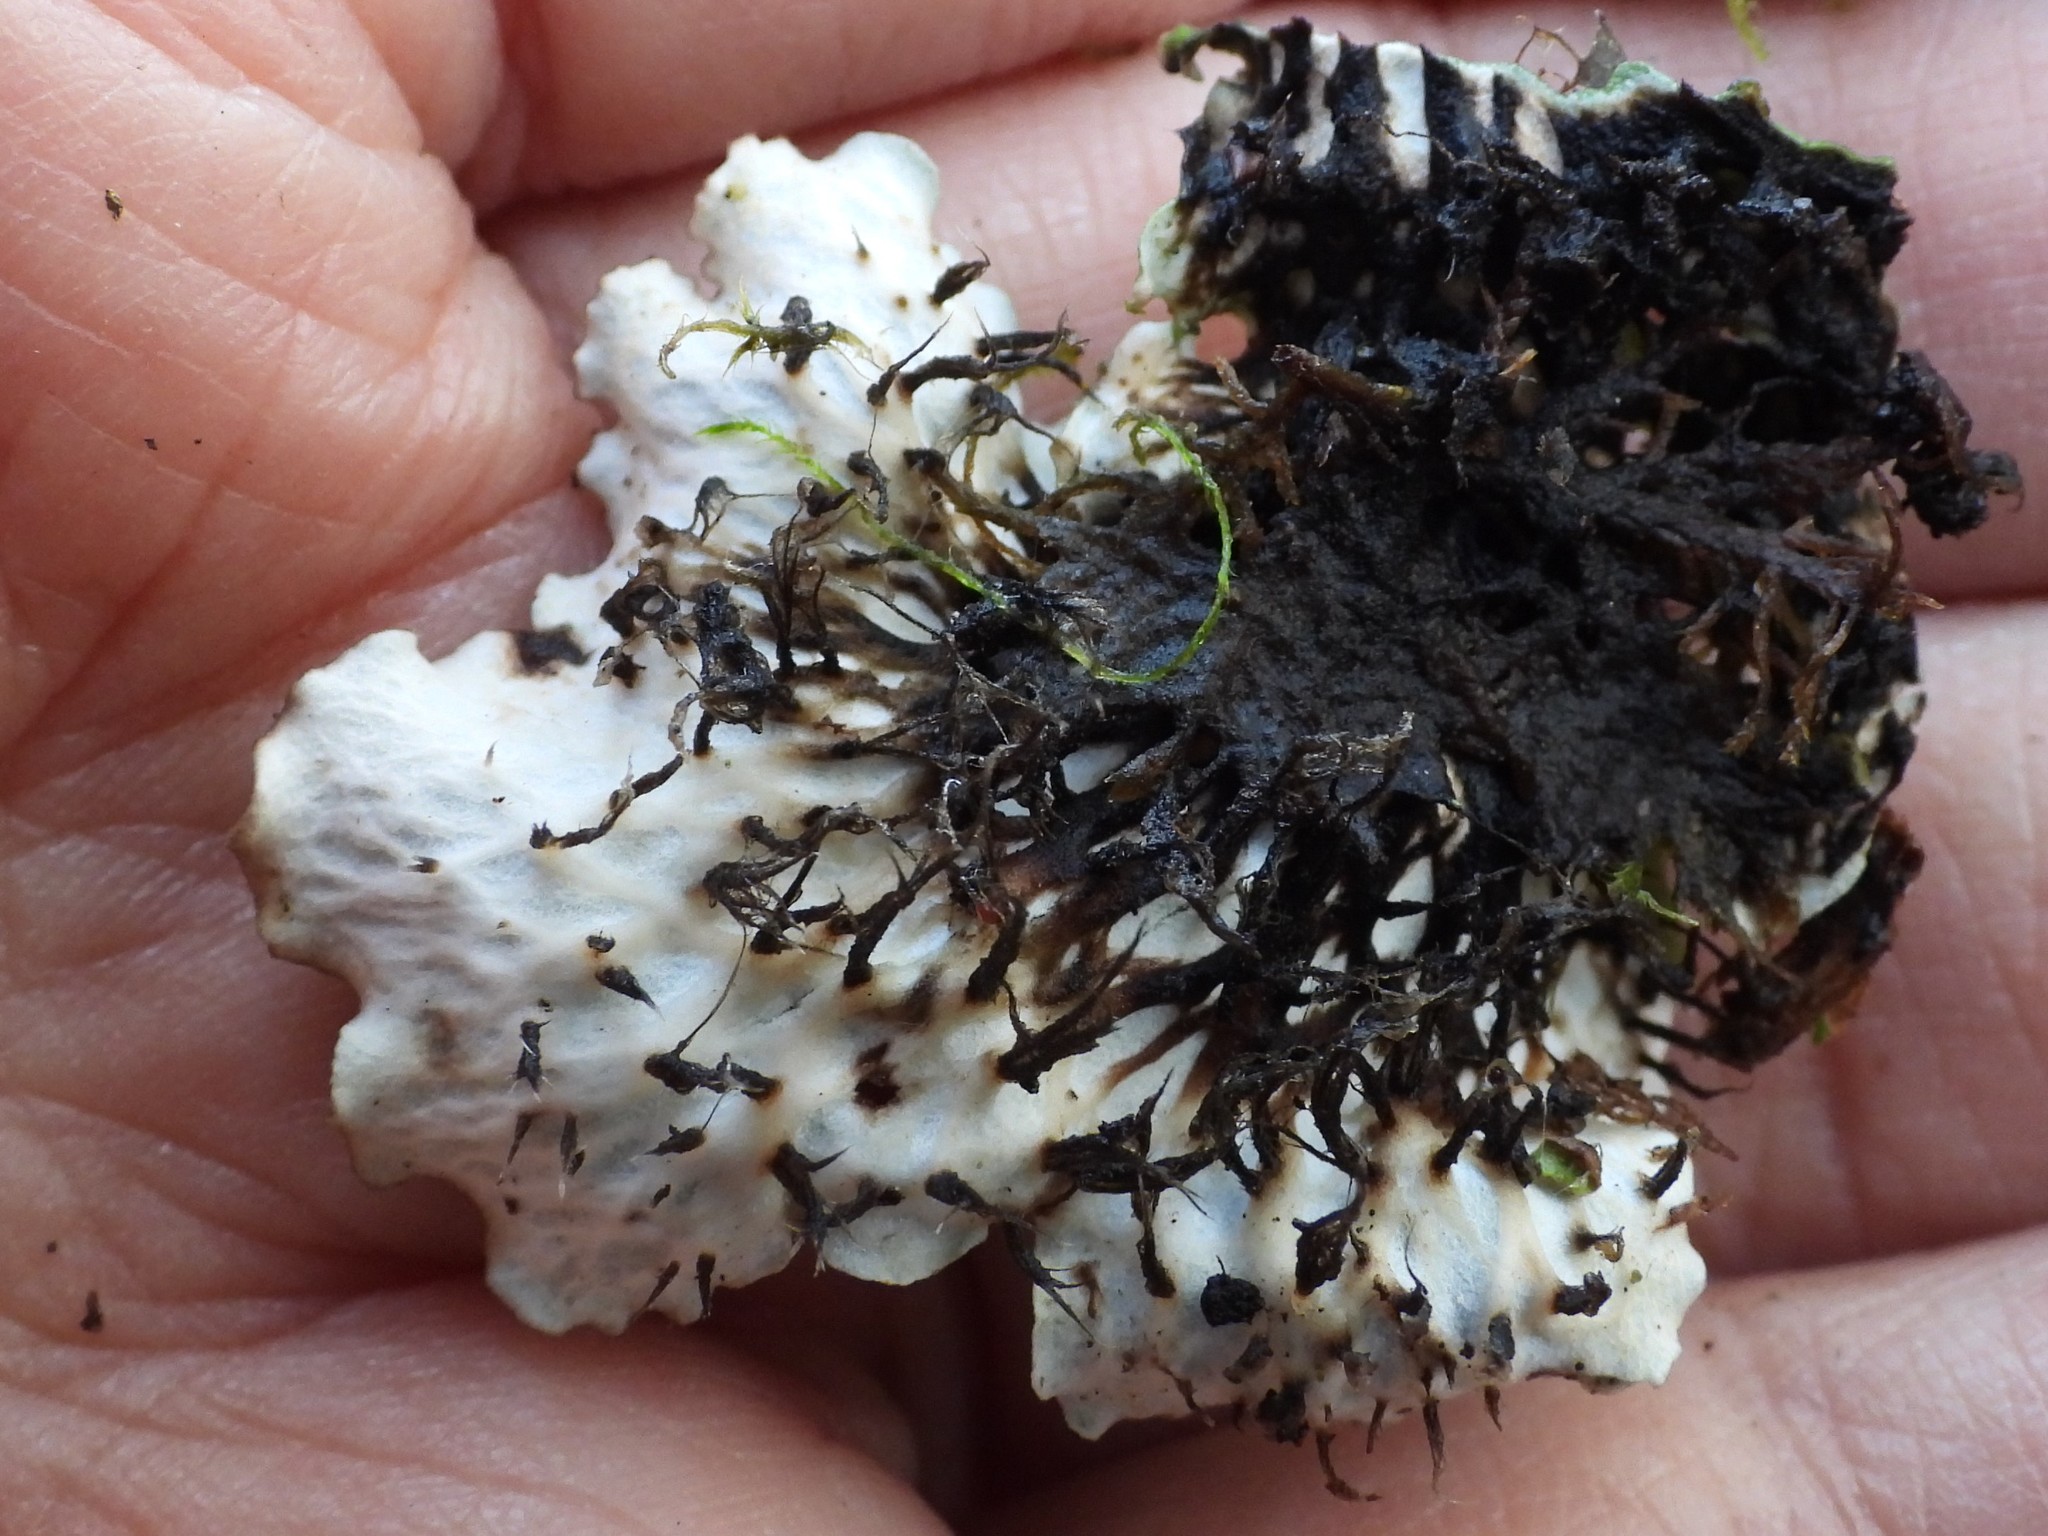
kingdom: Fungi
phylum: Ascomycota
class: Lecanoromycetes
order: Peltigerales
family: Peltigeraceae
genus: Peltigera
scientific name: Peltigera leucophlebia
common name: Ruffled freckle pelt lichen
